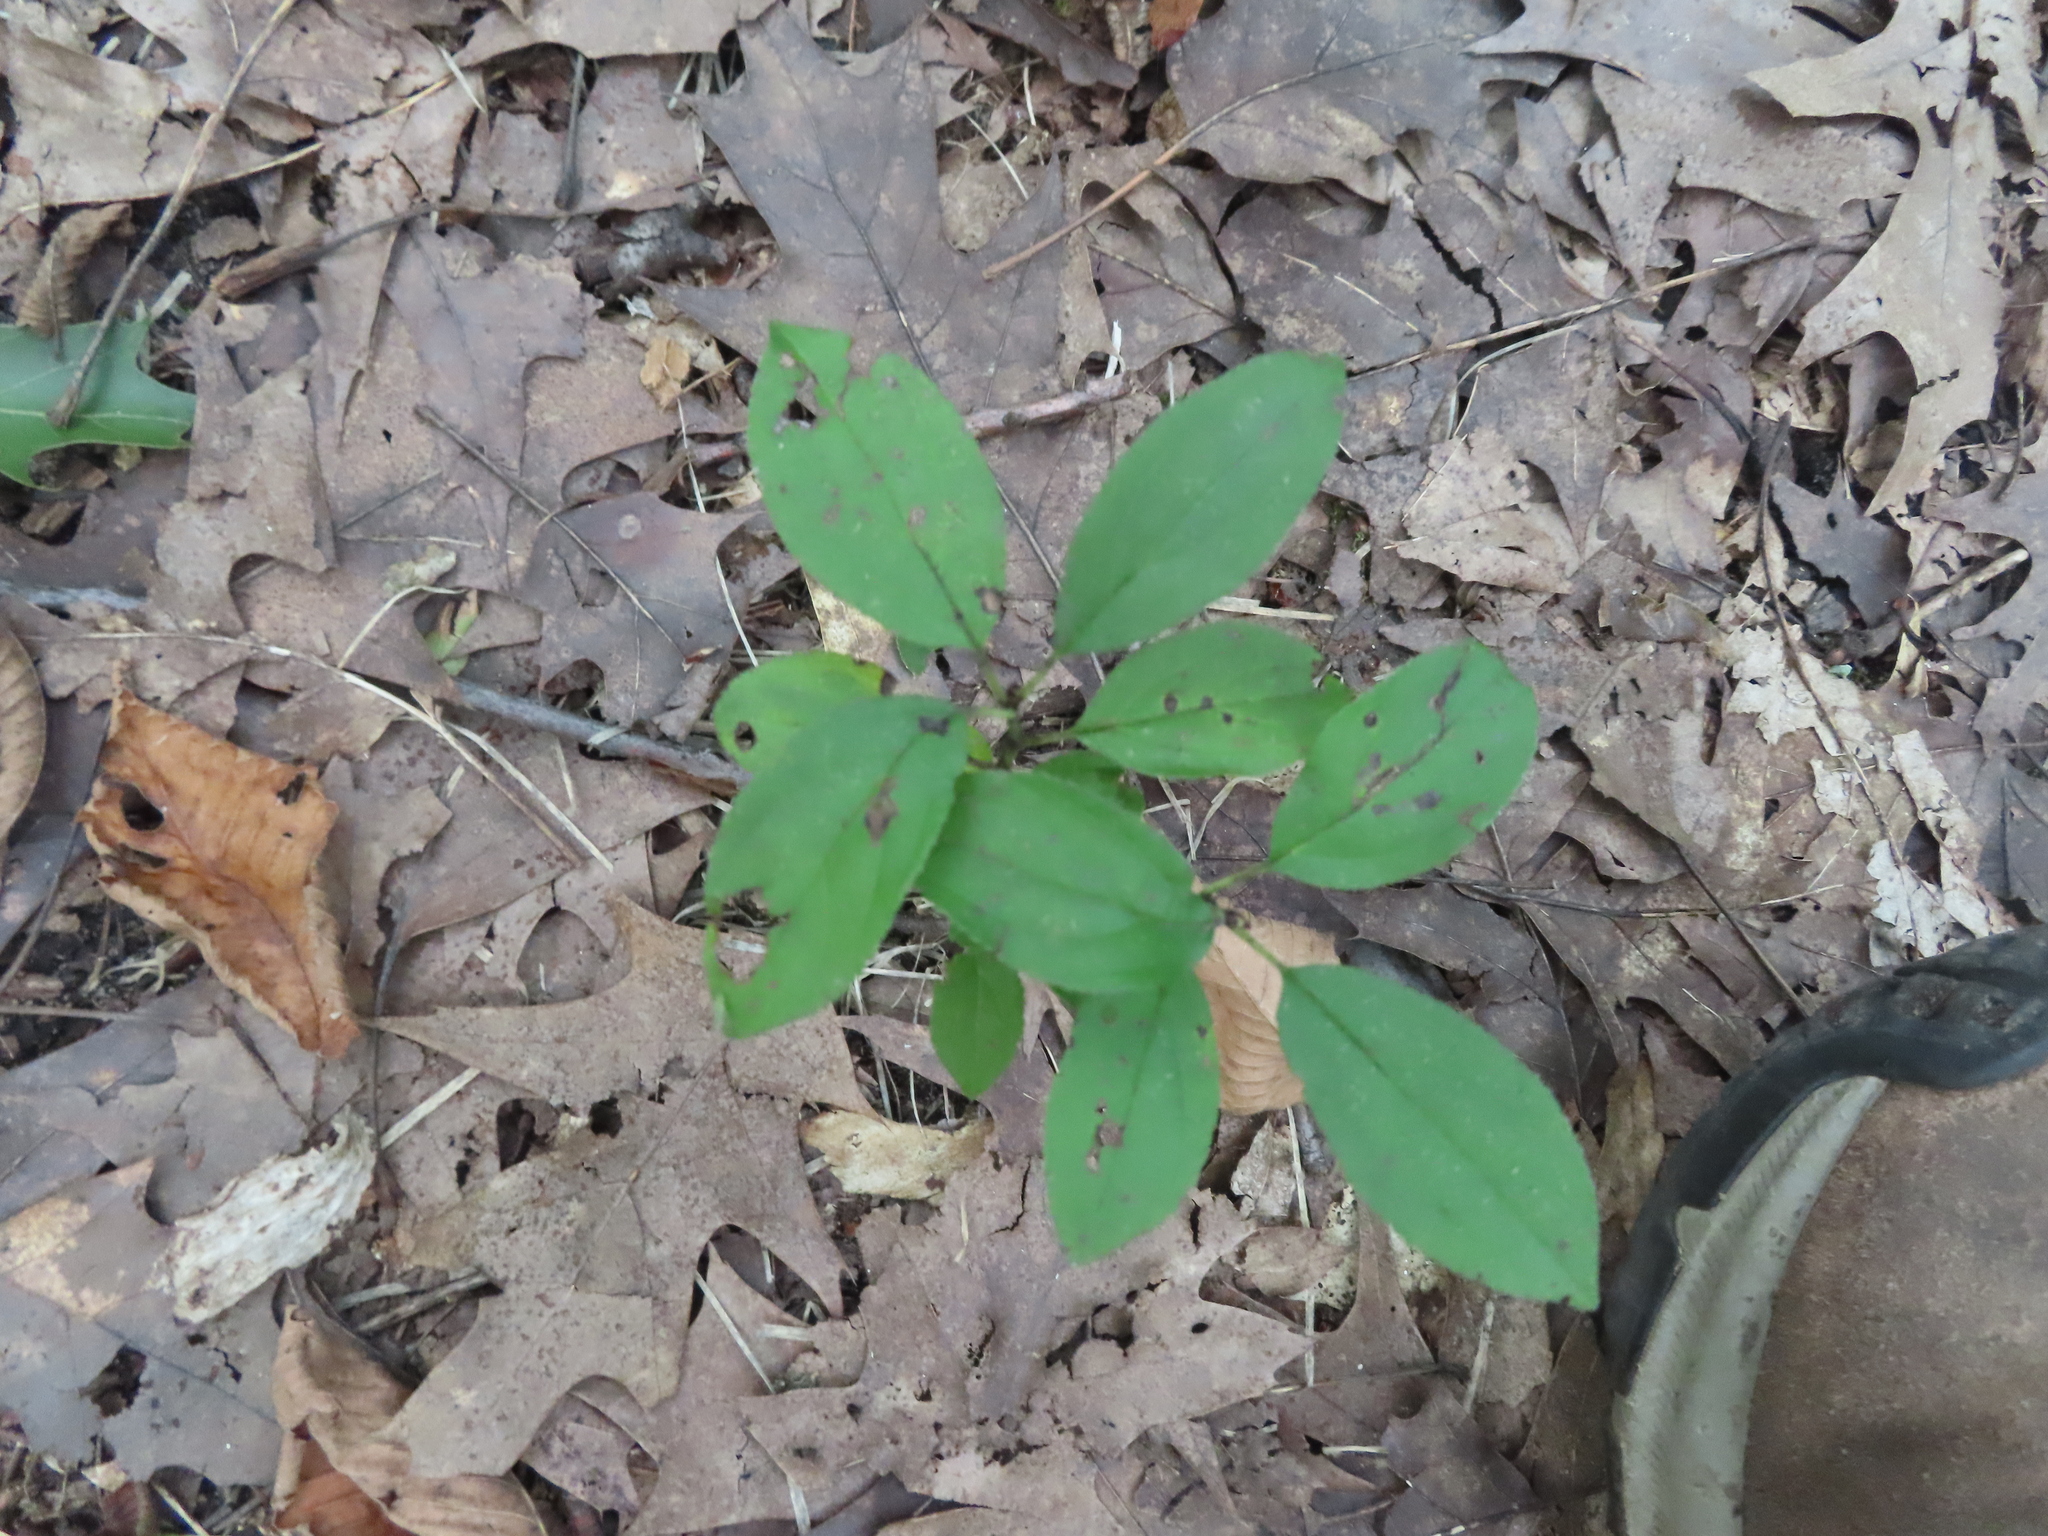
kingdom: Plantae
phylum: Tracheophyta
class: Magnoliopsida
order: Rosales
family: Rhamnaceae
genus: Rhamnus
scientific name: Rhamnus cathartica
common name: Common buckthorn
